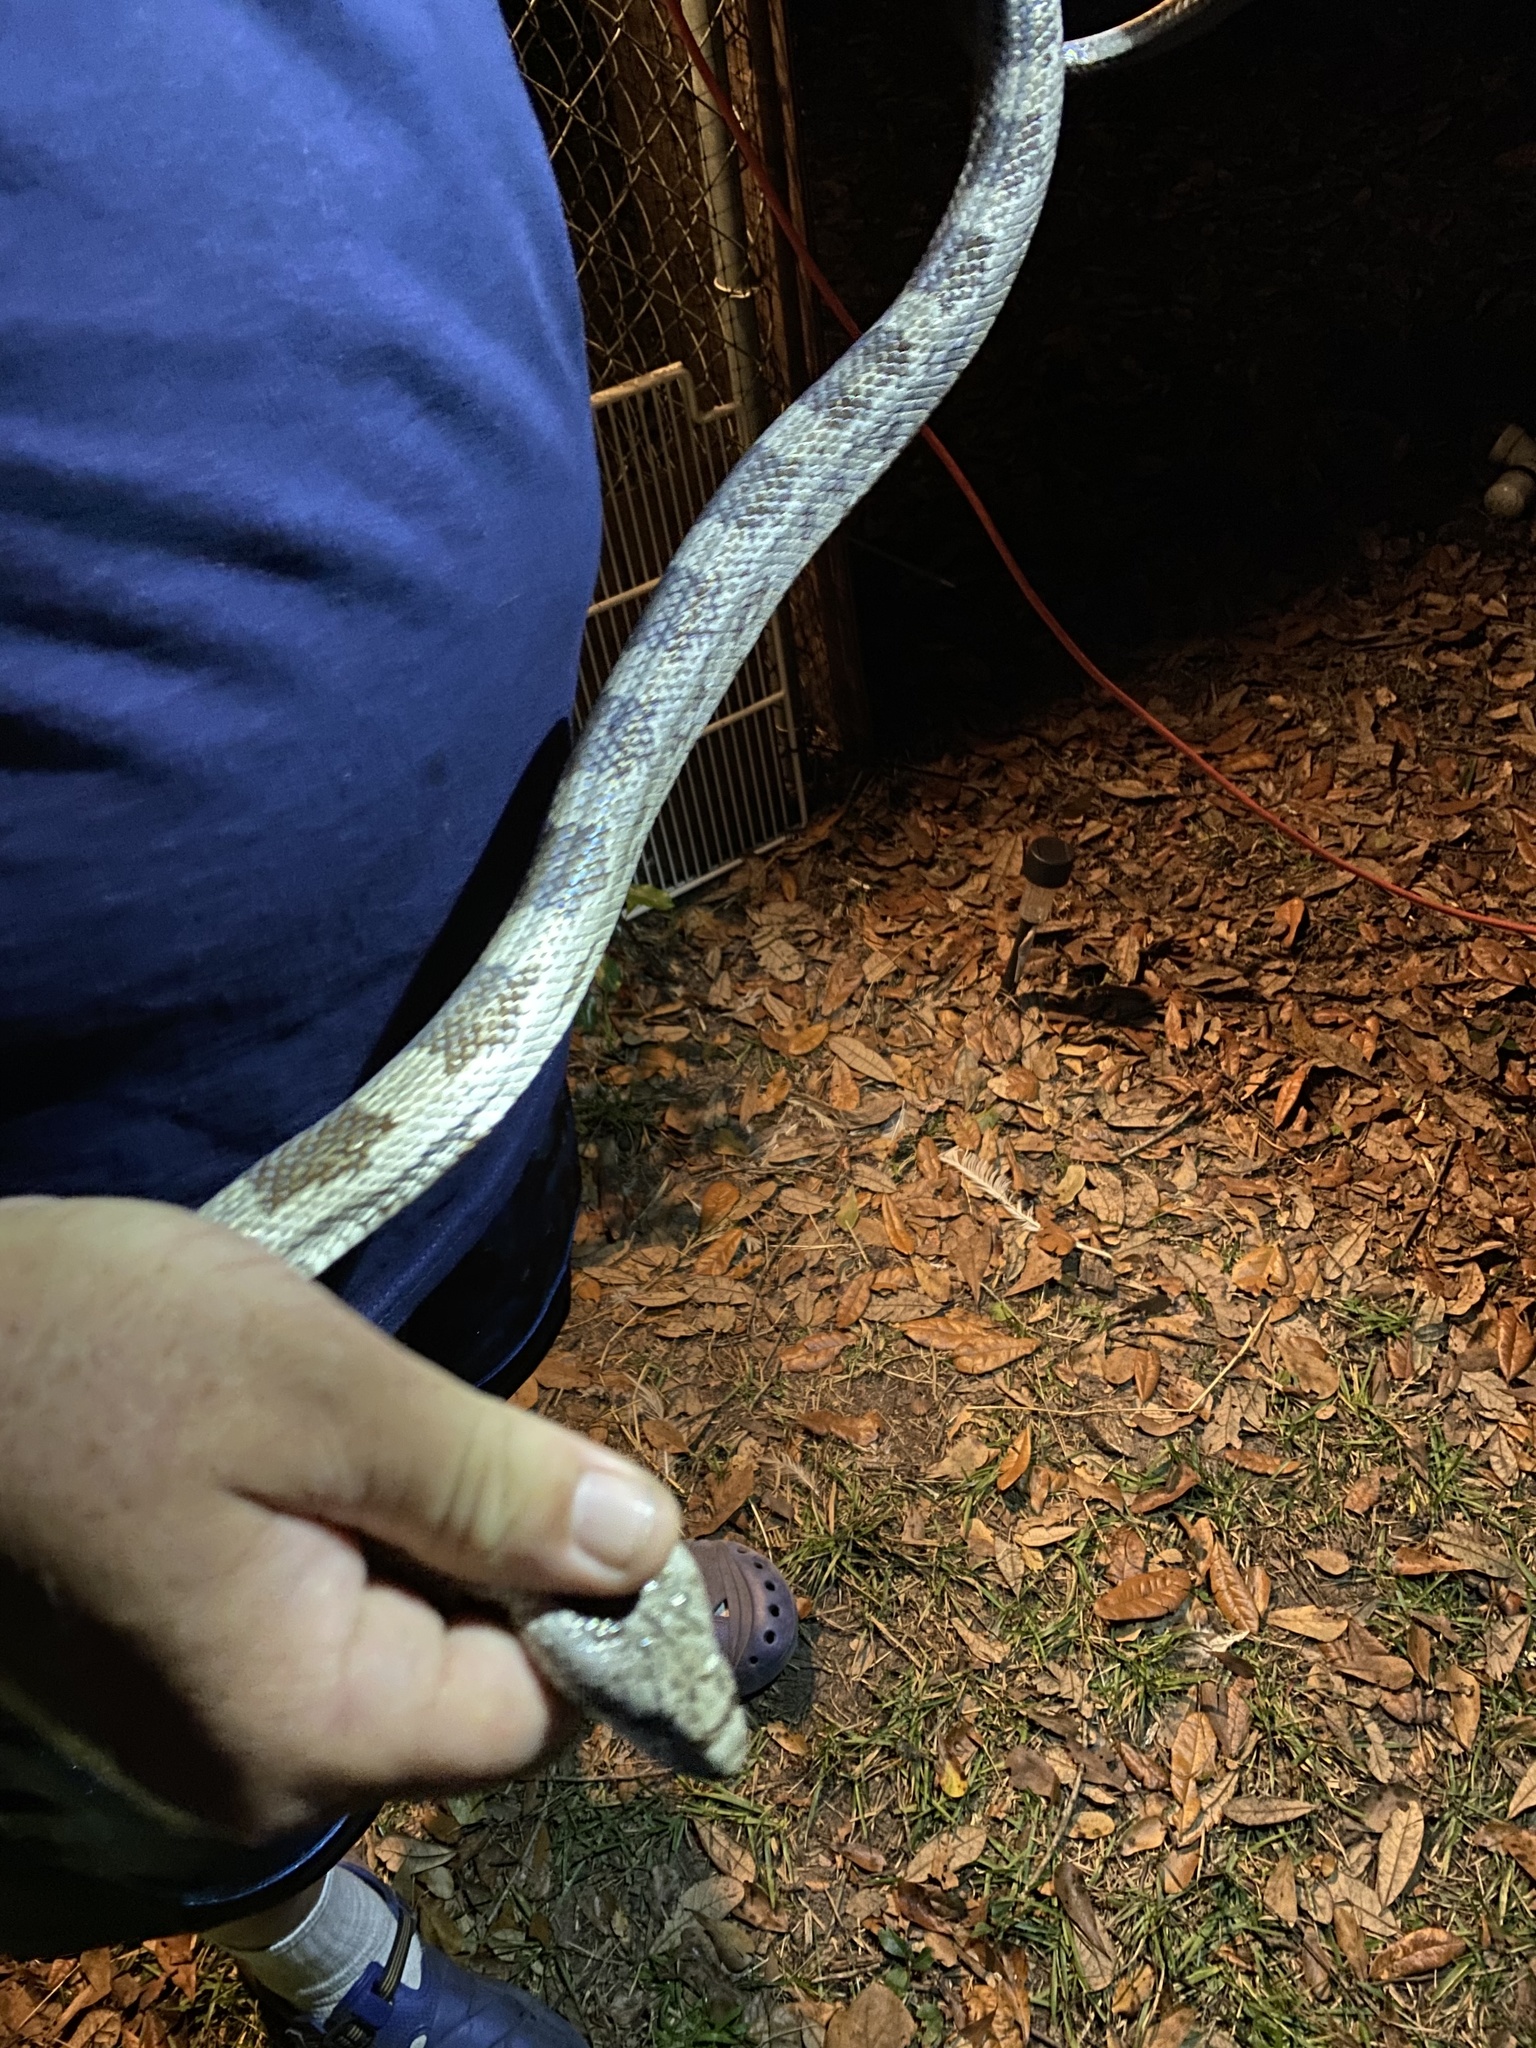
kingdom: Animalia
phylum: Chordata
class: Squamata
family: Colubridae
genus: Pantherophis
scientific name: Pantherophis spiloides
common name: Gray rat snake
